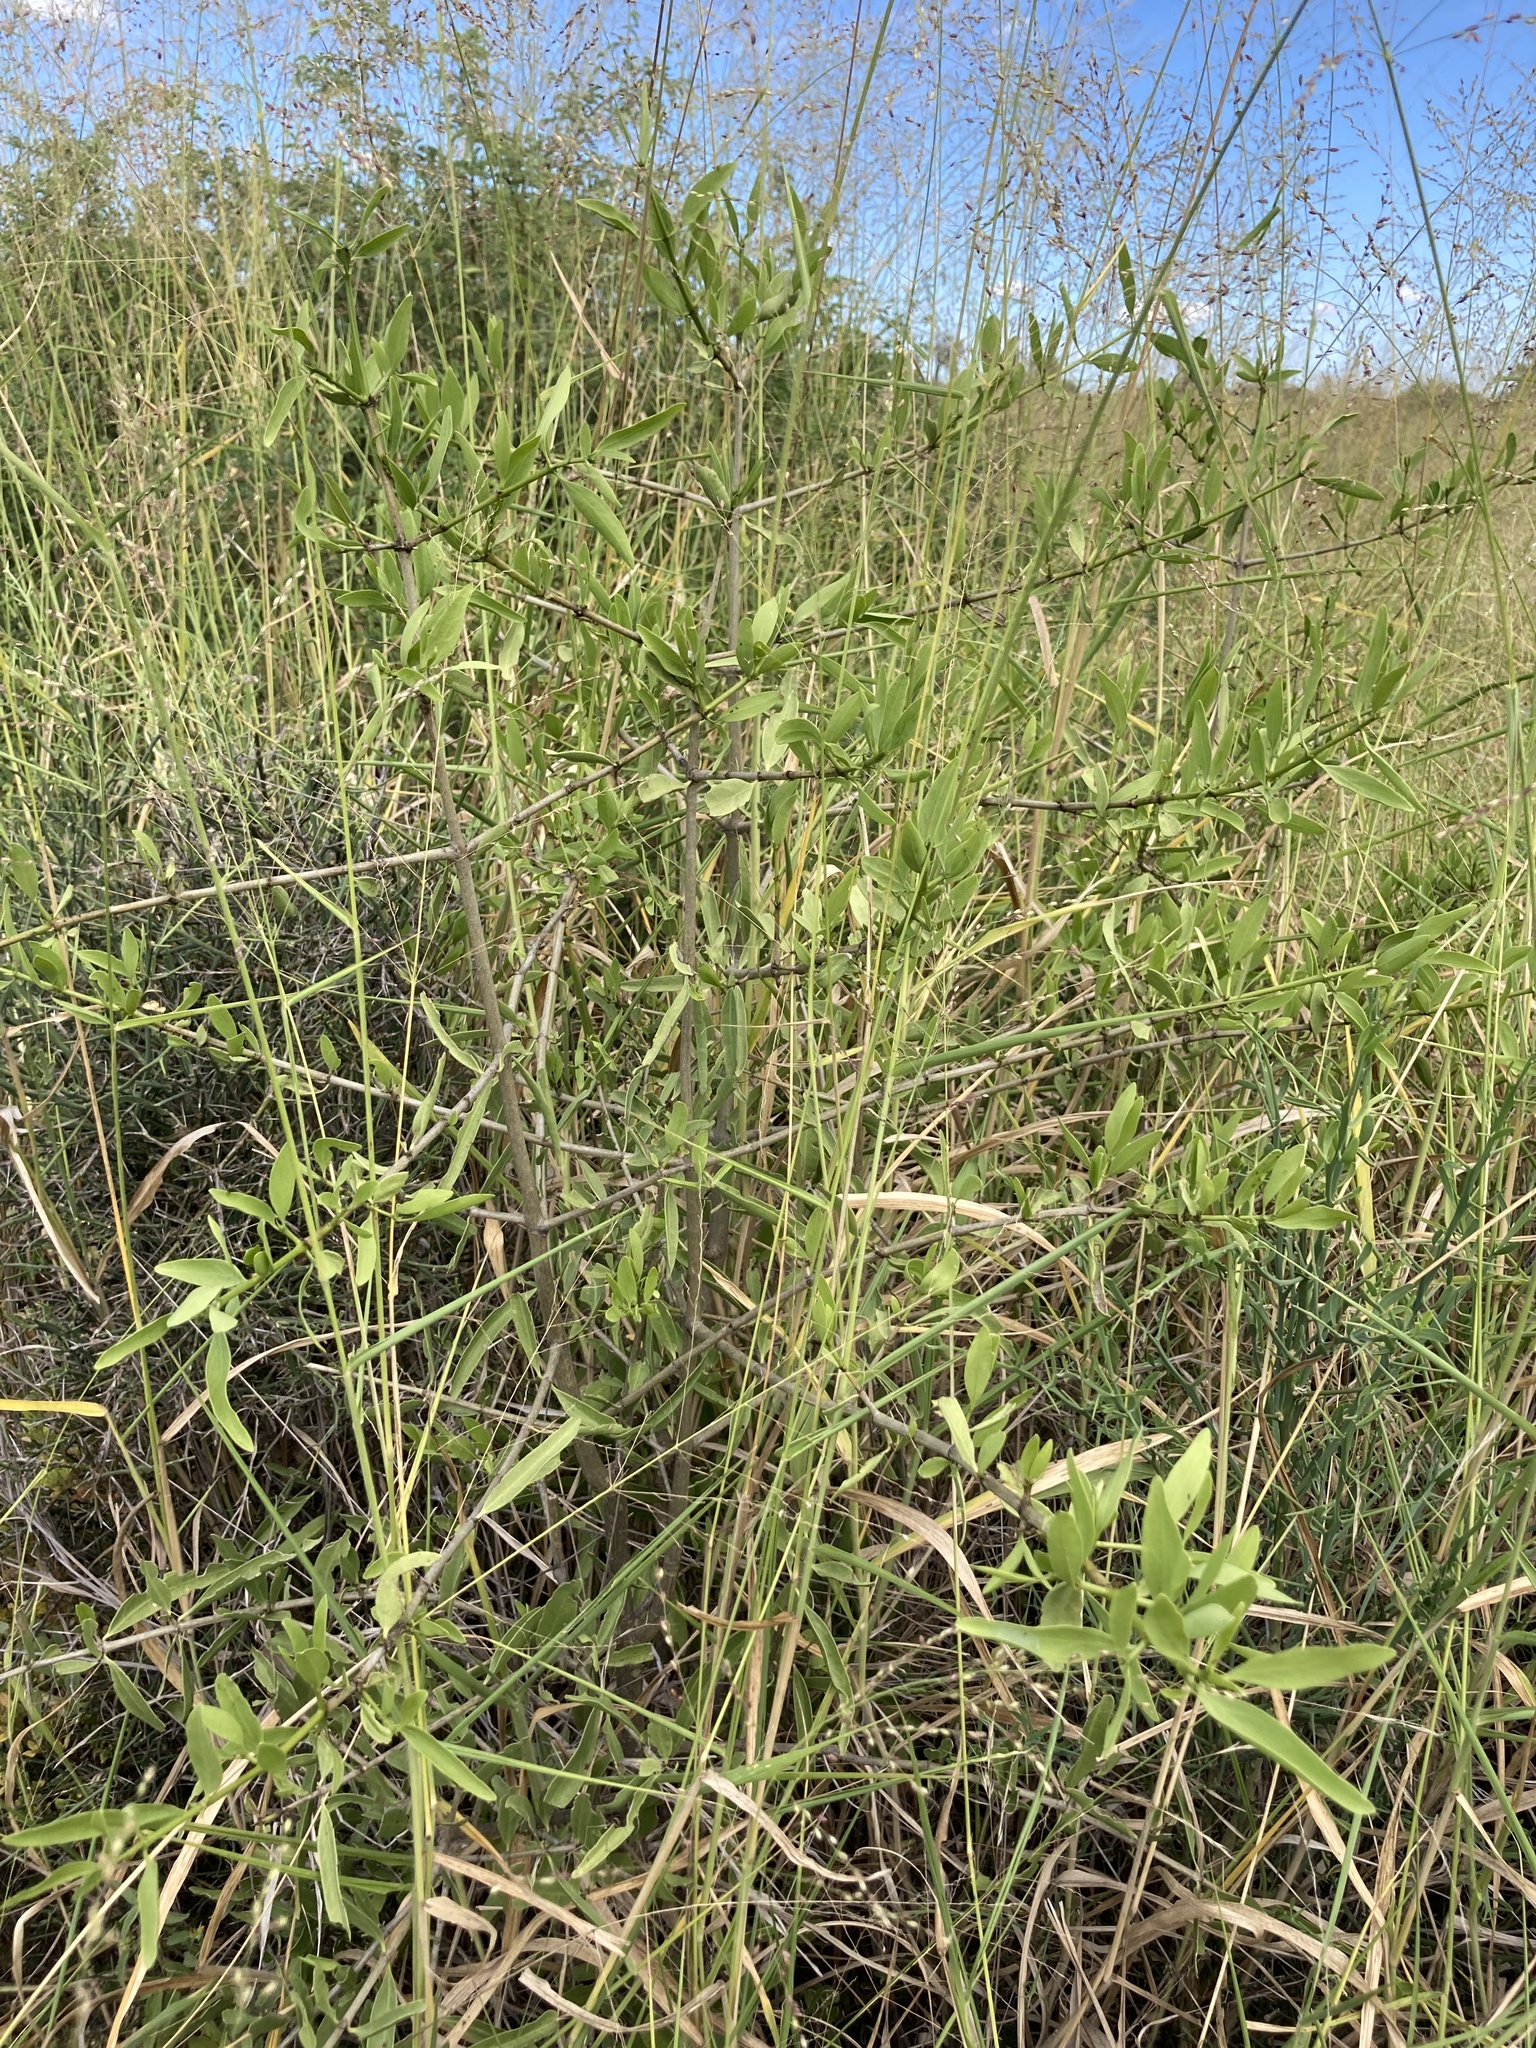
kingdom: Plantae
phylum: Tracheophyta
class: Magnoliopsida
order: Gentianales
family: Rubiaceae
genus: Psydrax
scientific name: Psydrax oleifolius
